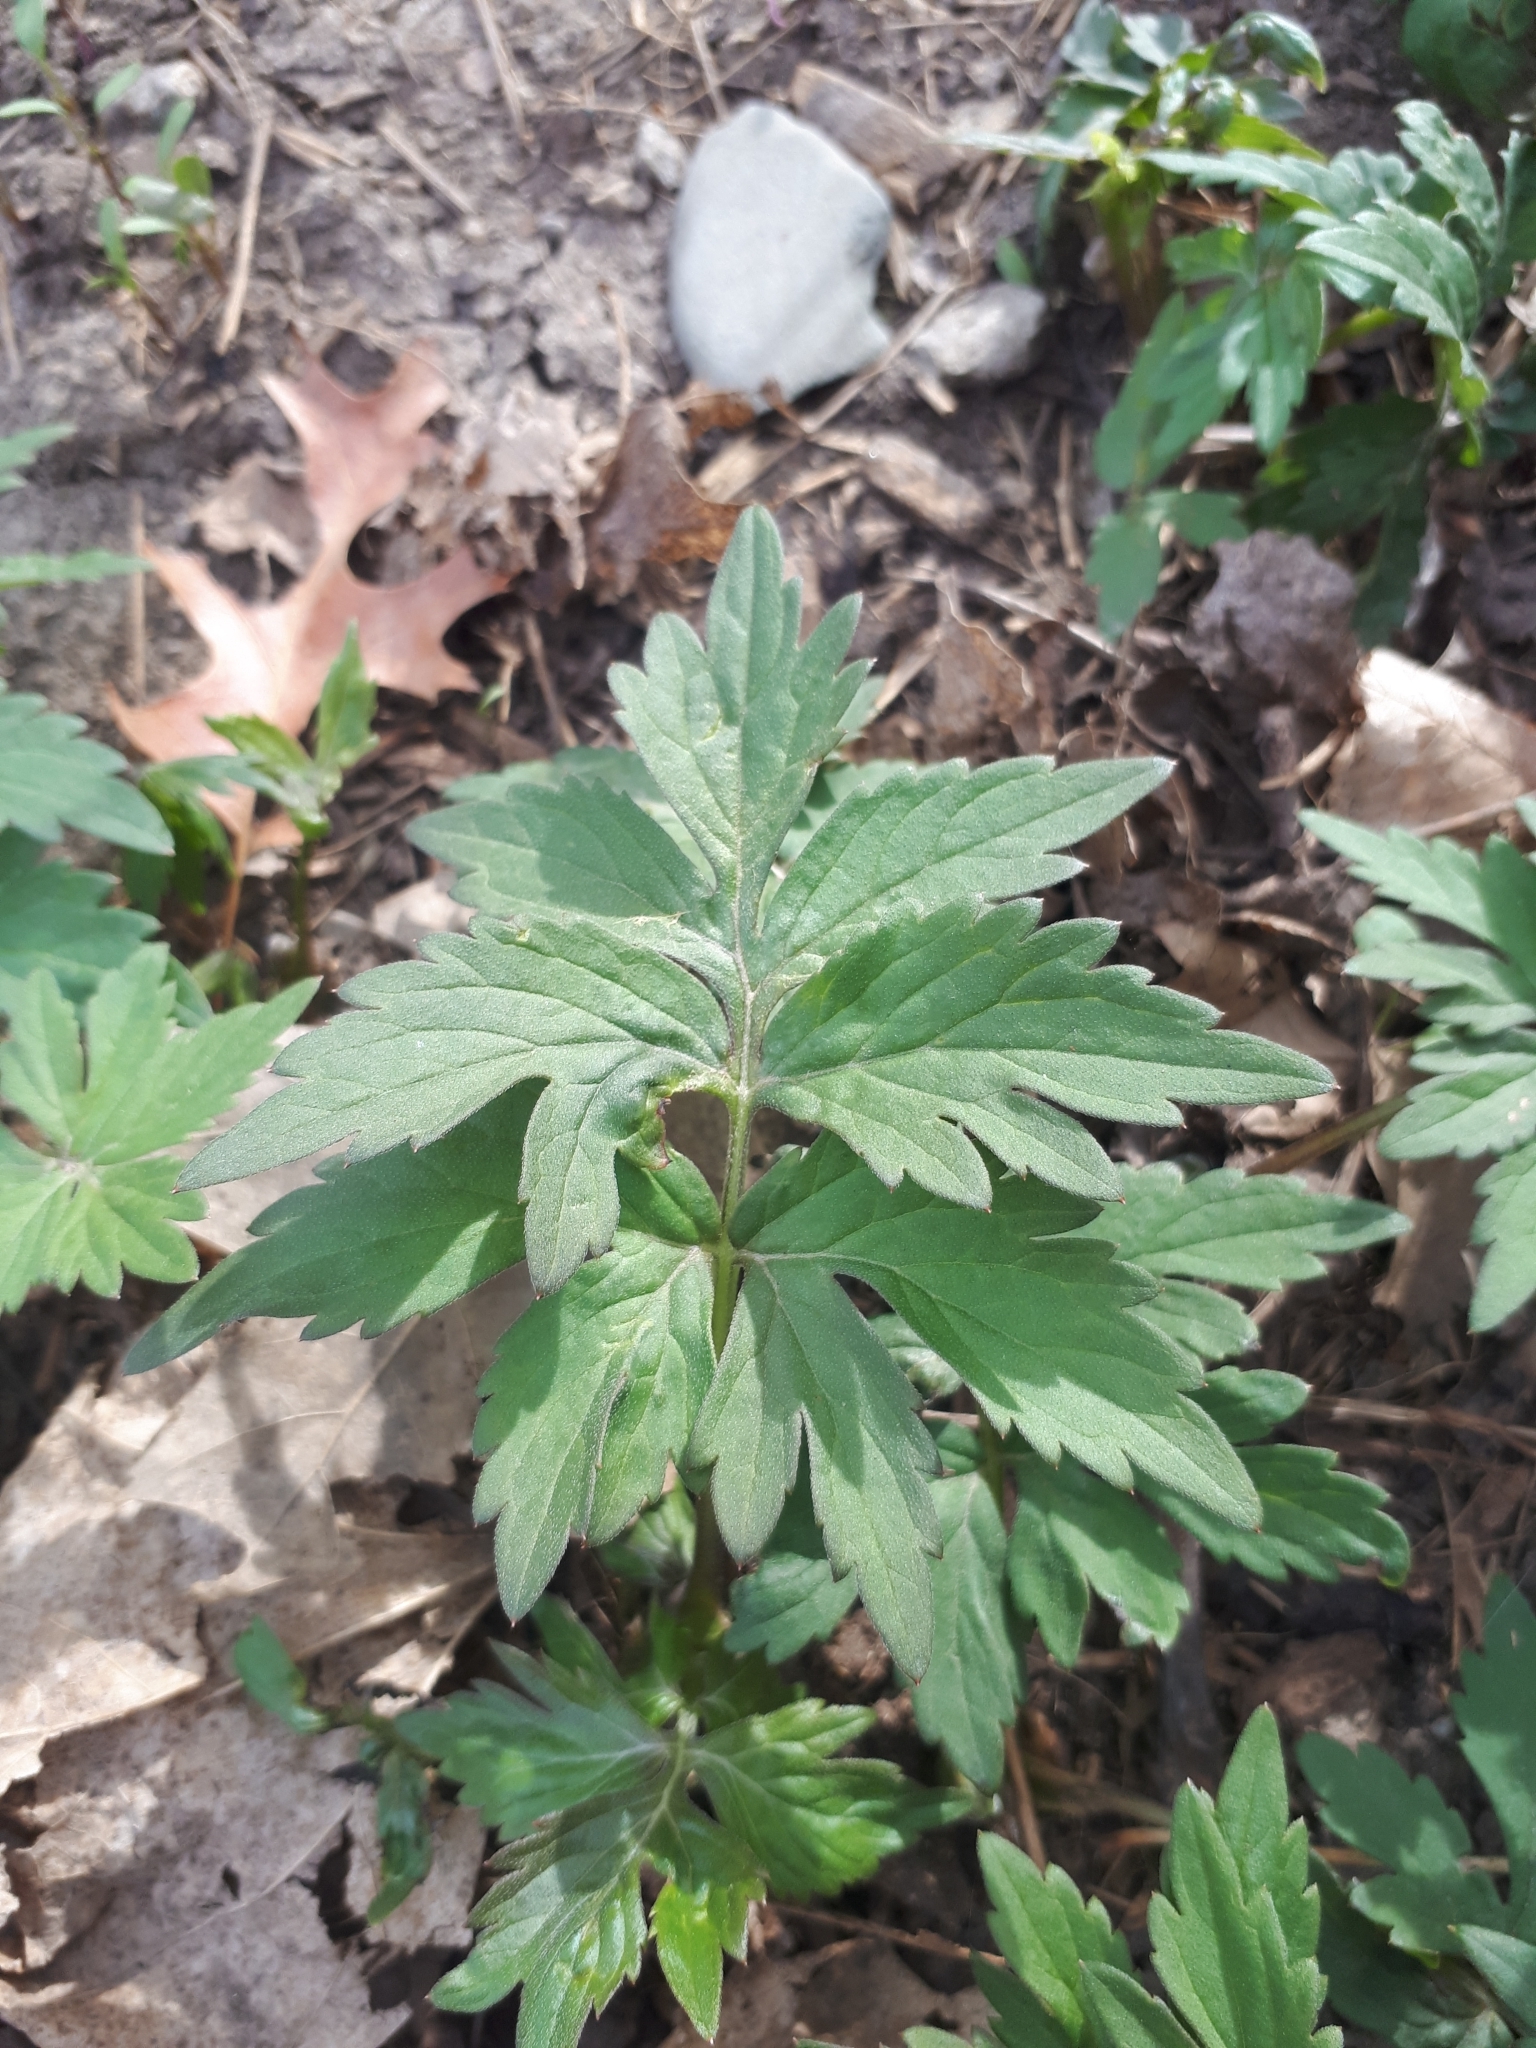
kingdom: Plantae
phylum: Tracheophyta
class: Magnoliopsida
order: Boraginales
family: Hydrophyllaceae
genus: Hydrophyllum
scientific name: Hydrophyllum virginianum
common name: Virginia waterleaf
